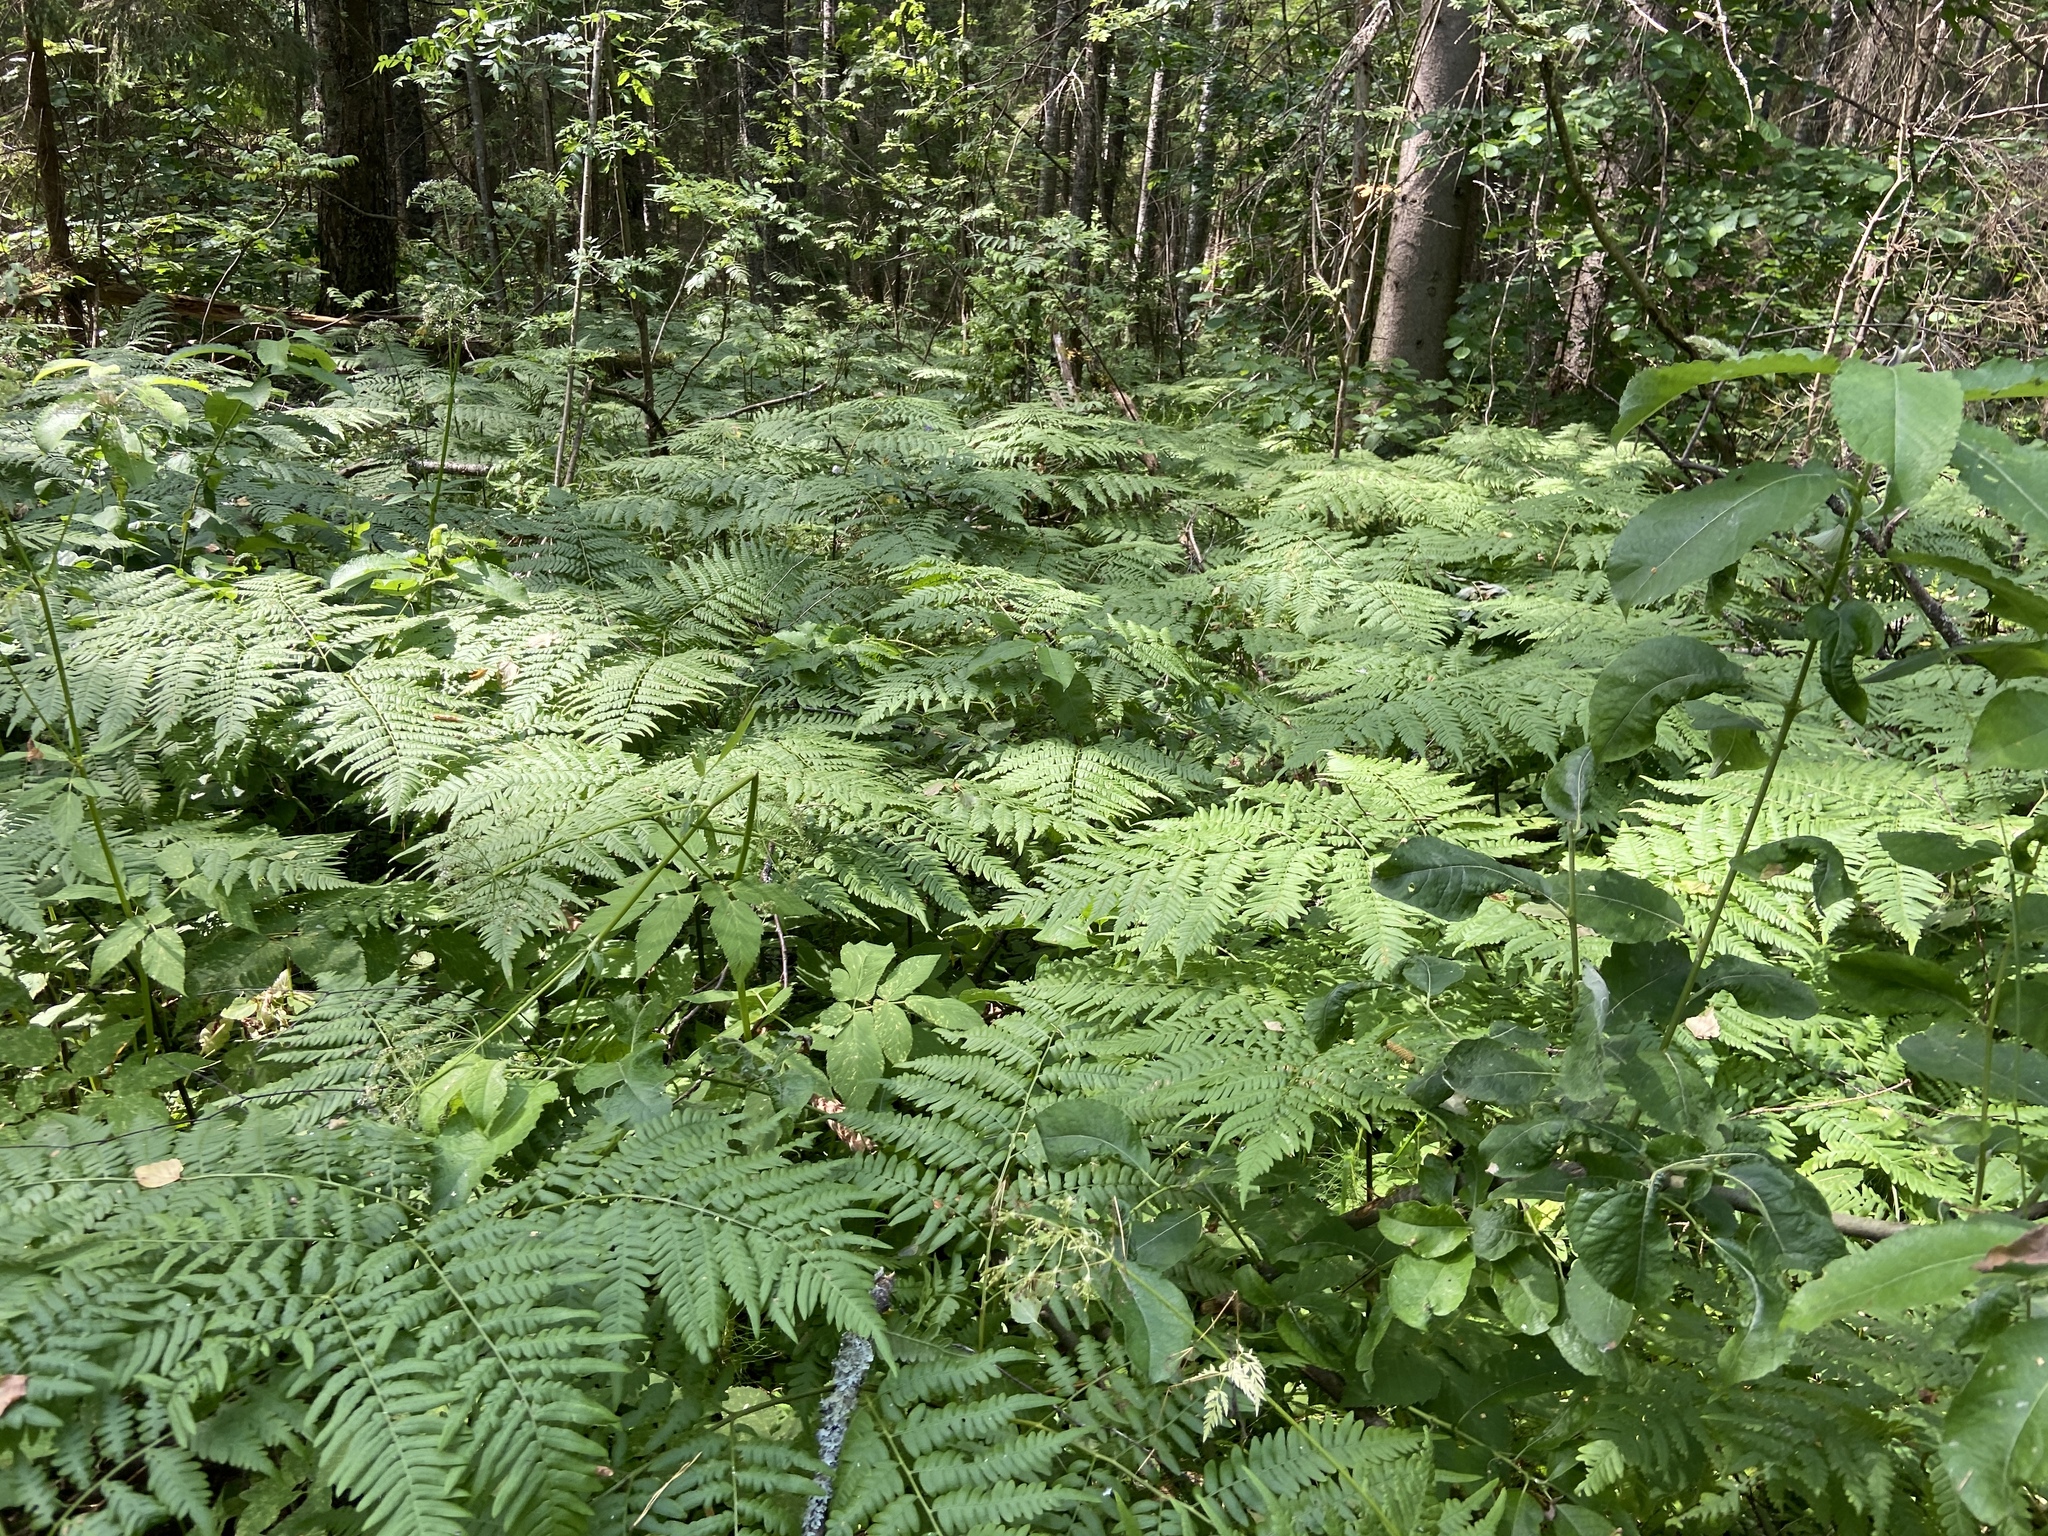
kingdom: Plantae
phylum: Tracheophyta
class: Polypodiopsida
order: Polypodiales
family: Dennstaedtiaceae
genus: Pteridium
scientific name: Pteridium aquilinum
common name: Bracken
